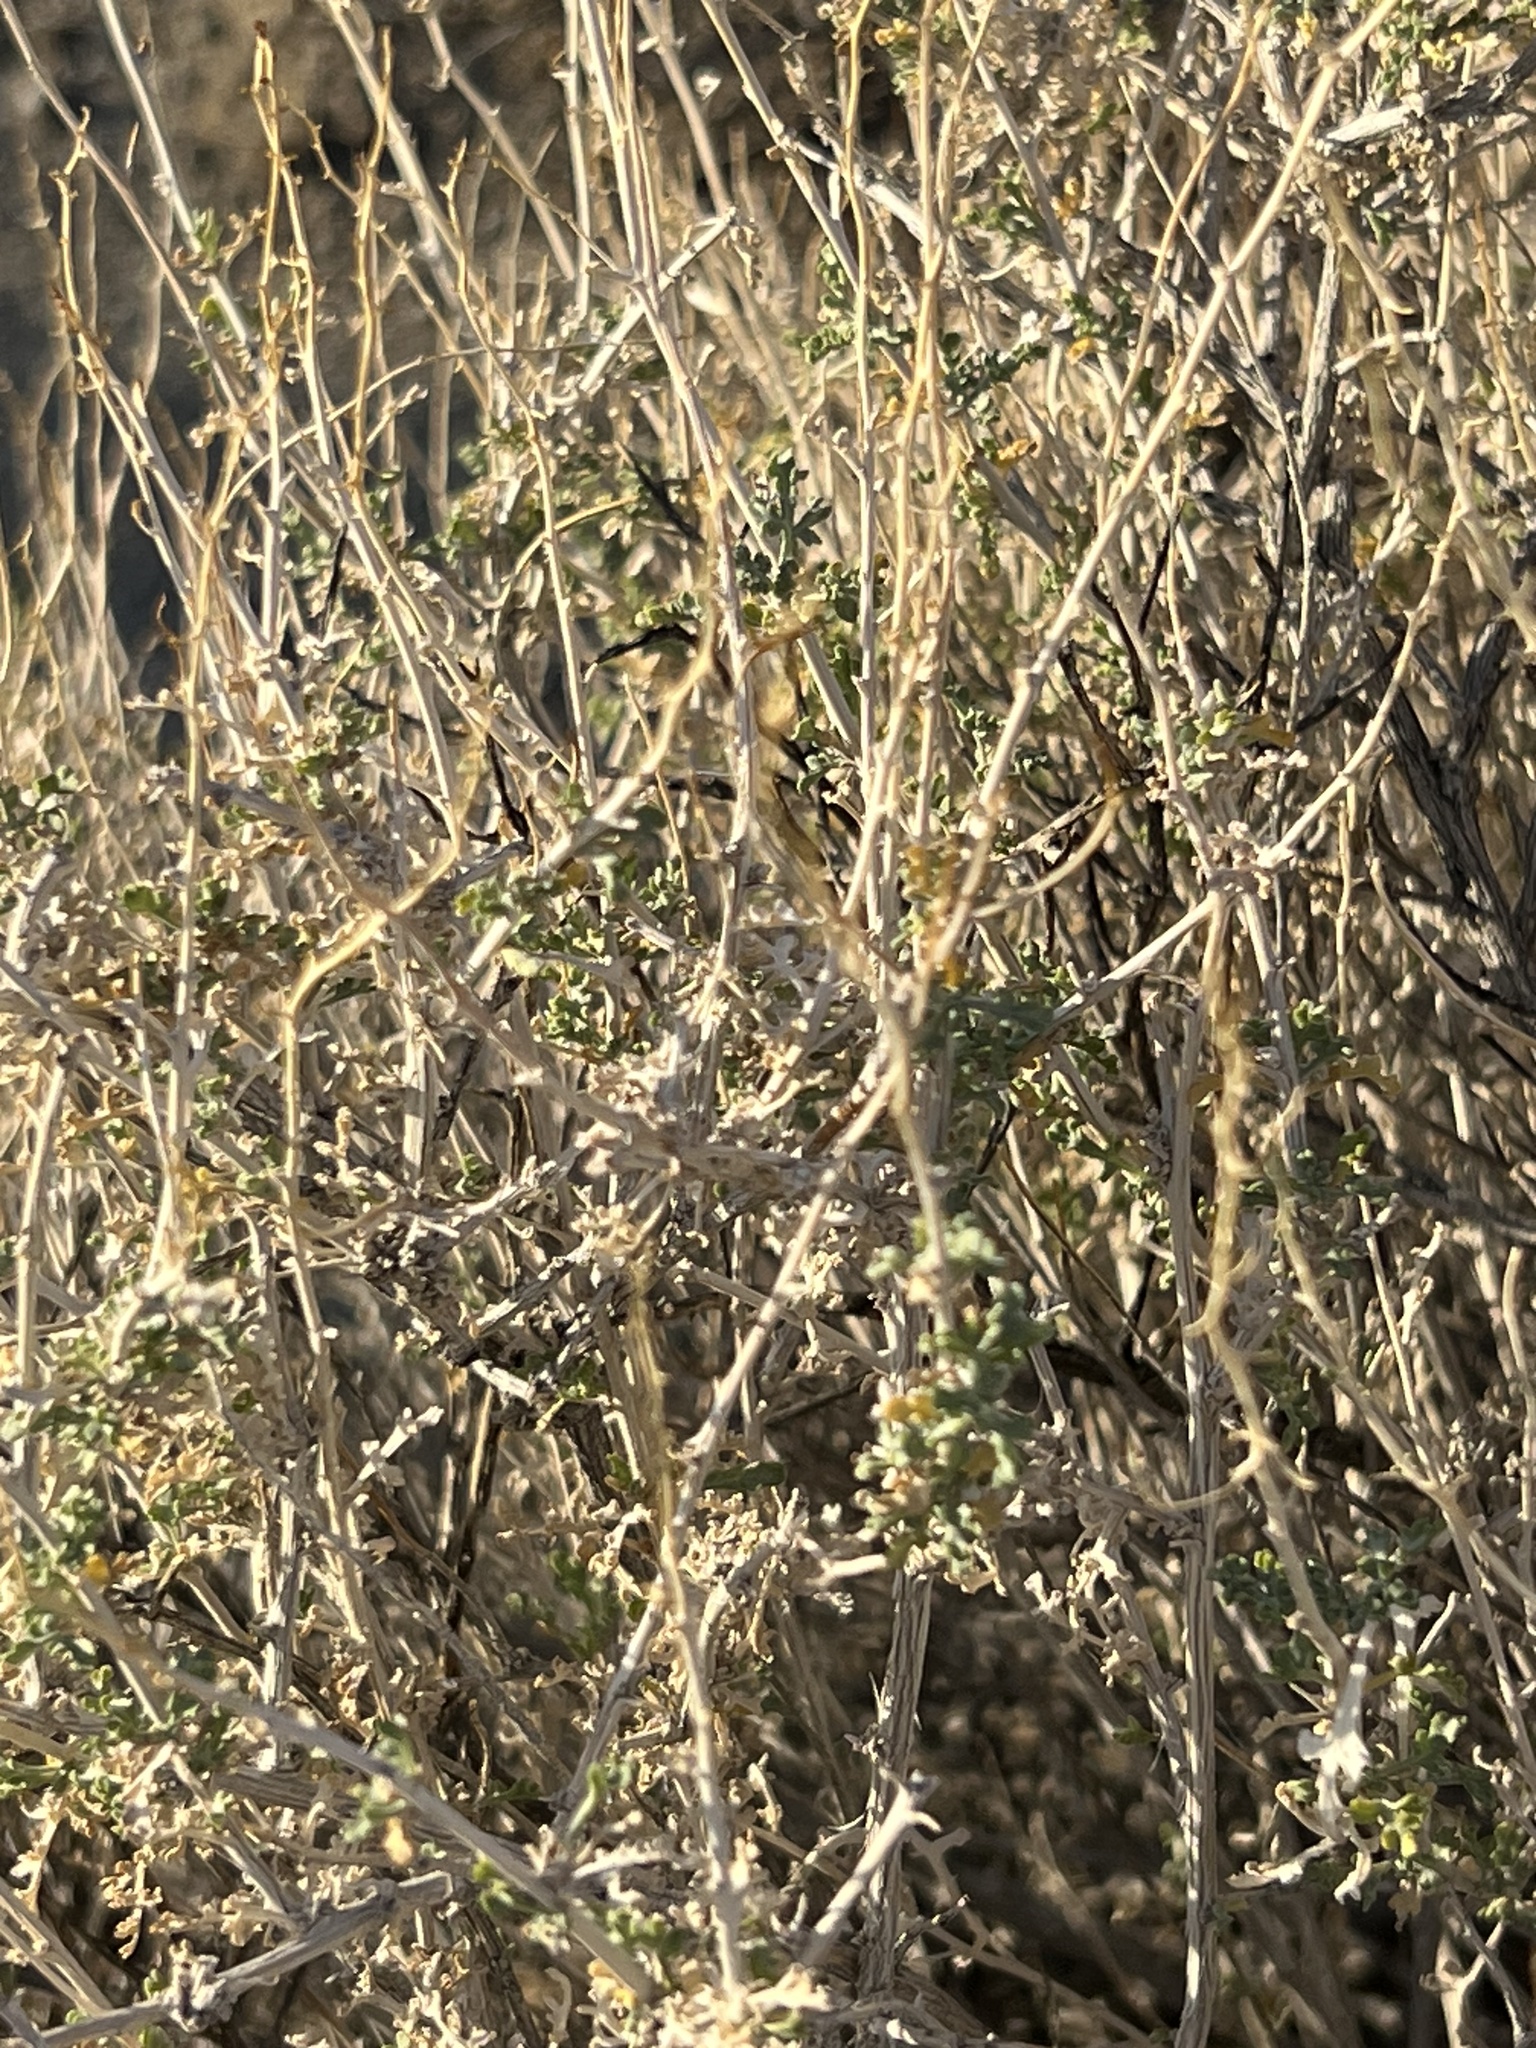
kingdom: Plantae
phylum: Tracheophyta
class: Magnoliopsida
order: Asterales
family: Asteraceae
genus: Ambrosia
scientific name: Ambrosia dumosa
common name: Bur-sage
